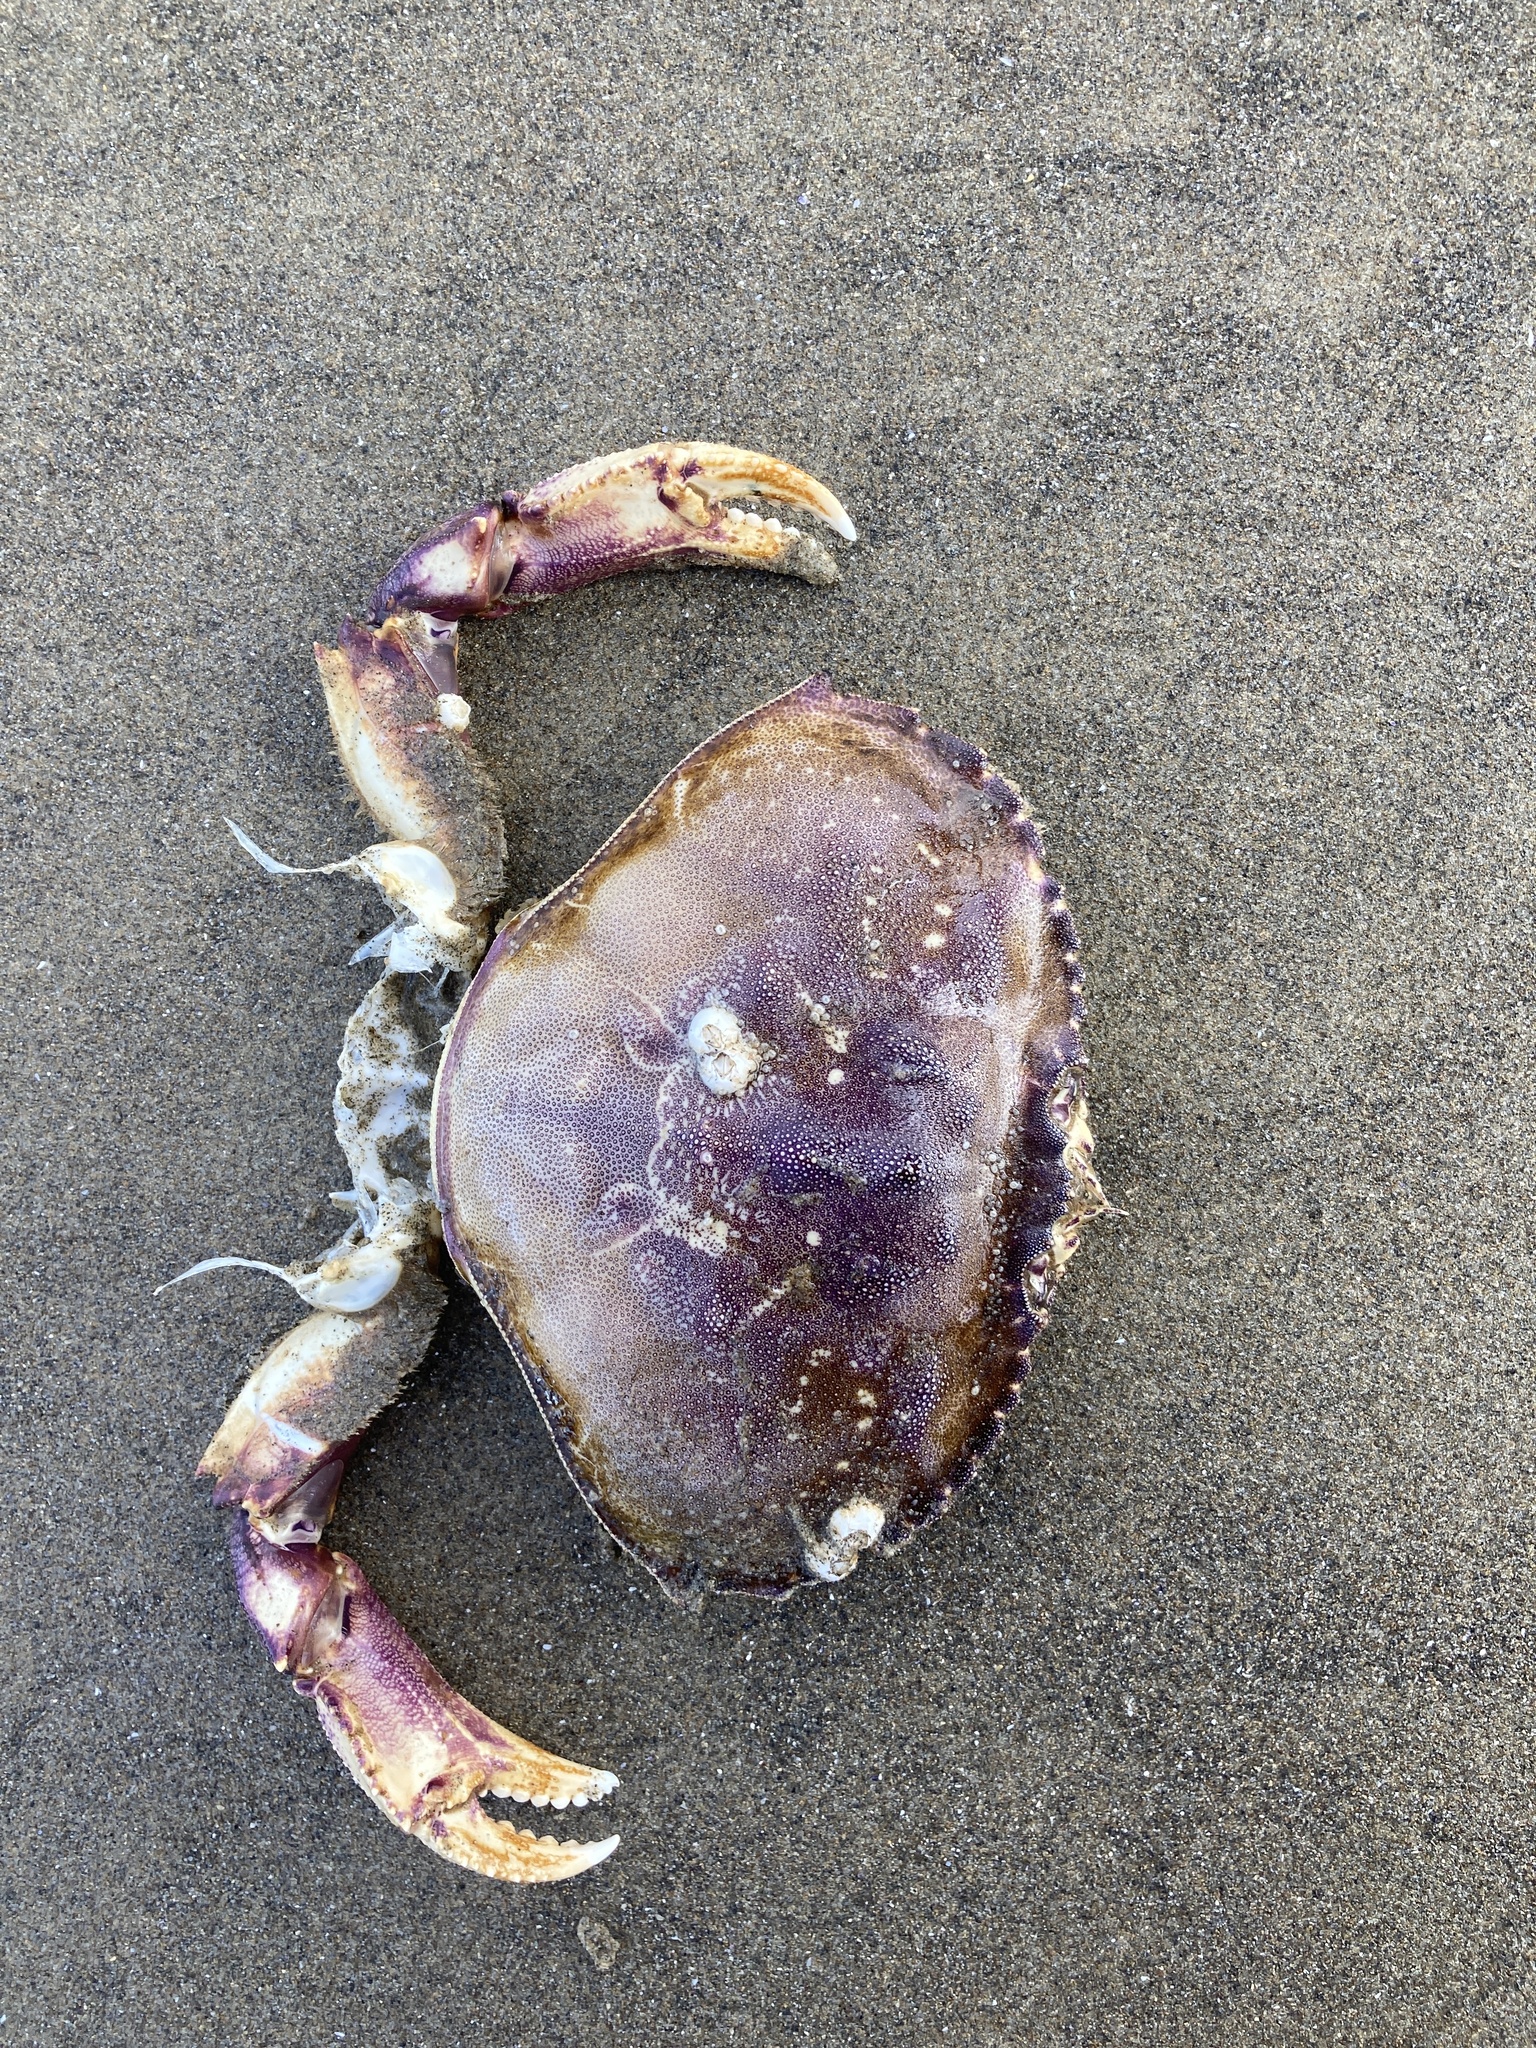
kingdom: Animalia
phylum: Arthropoda
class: Malacostraca
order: Decapoda
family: Cancridae
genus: Metacarcinus
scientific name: Metacarcinus magister
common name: Californian crab
